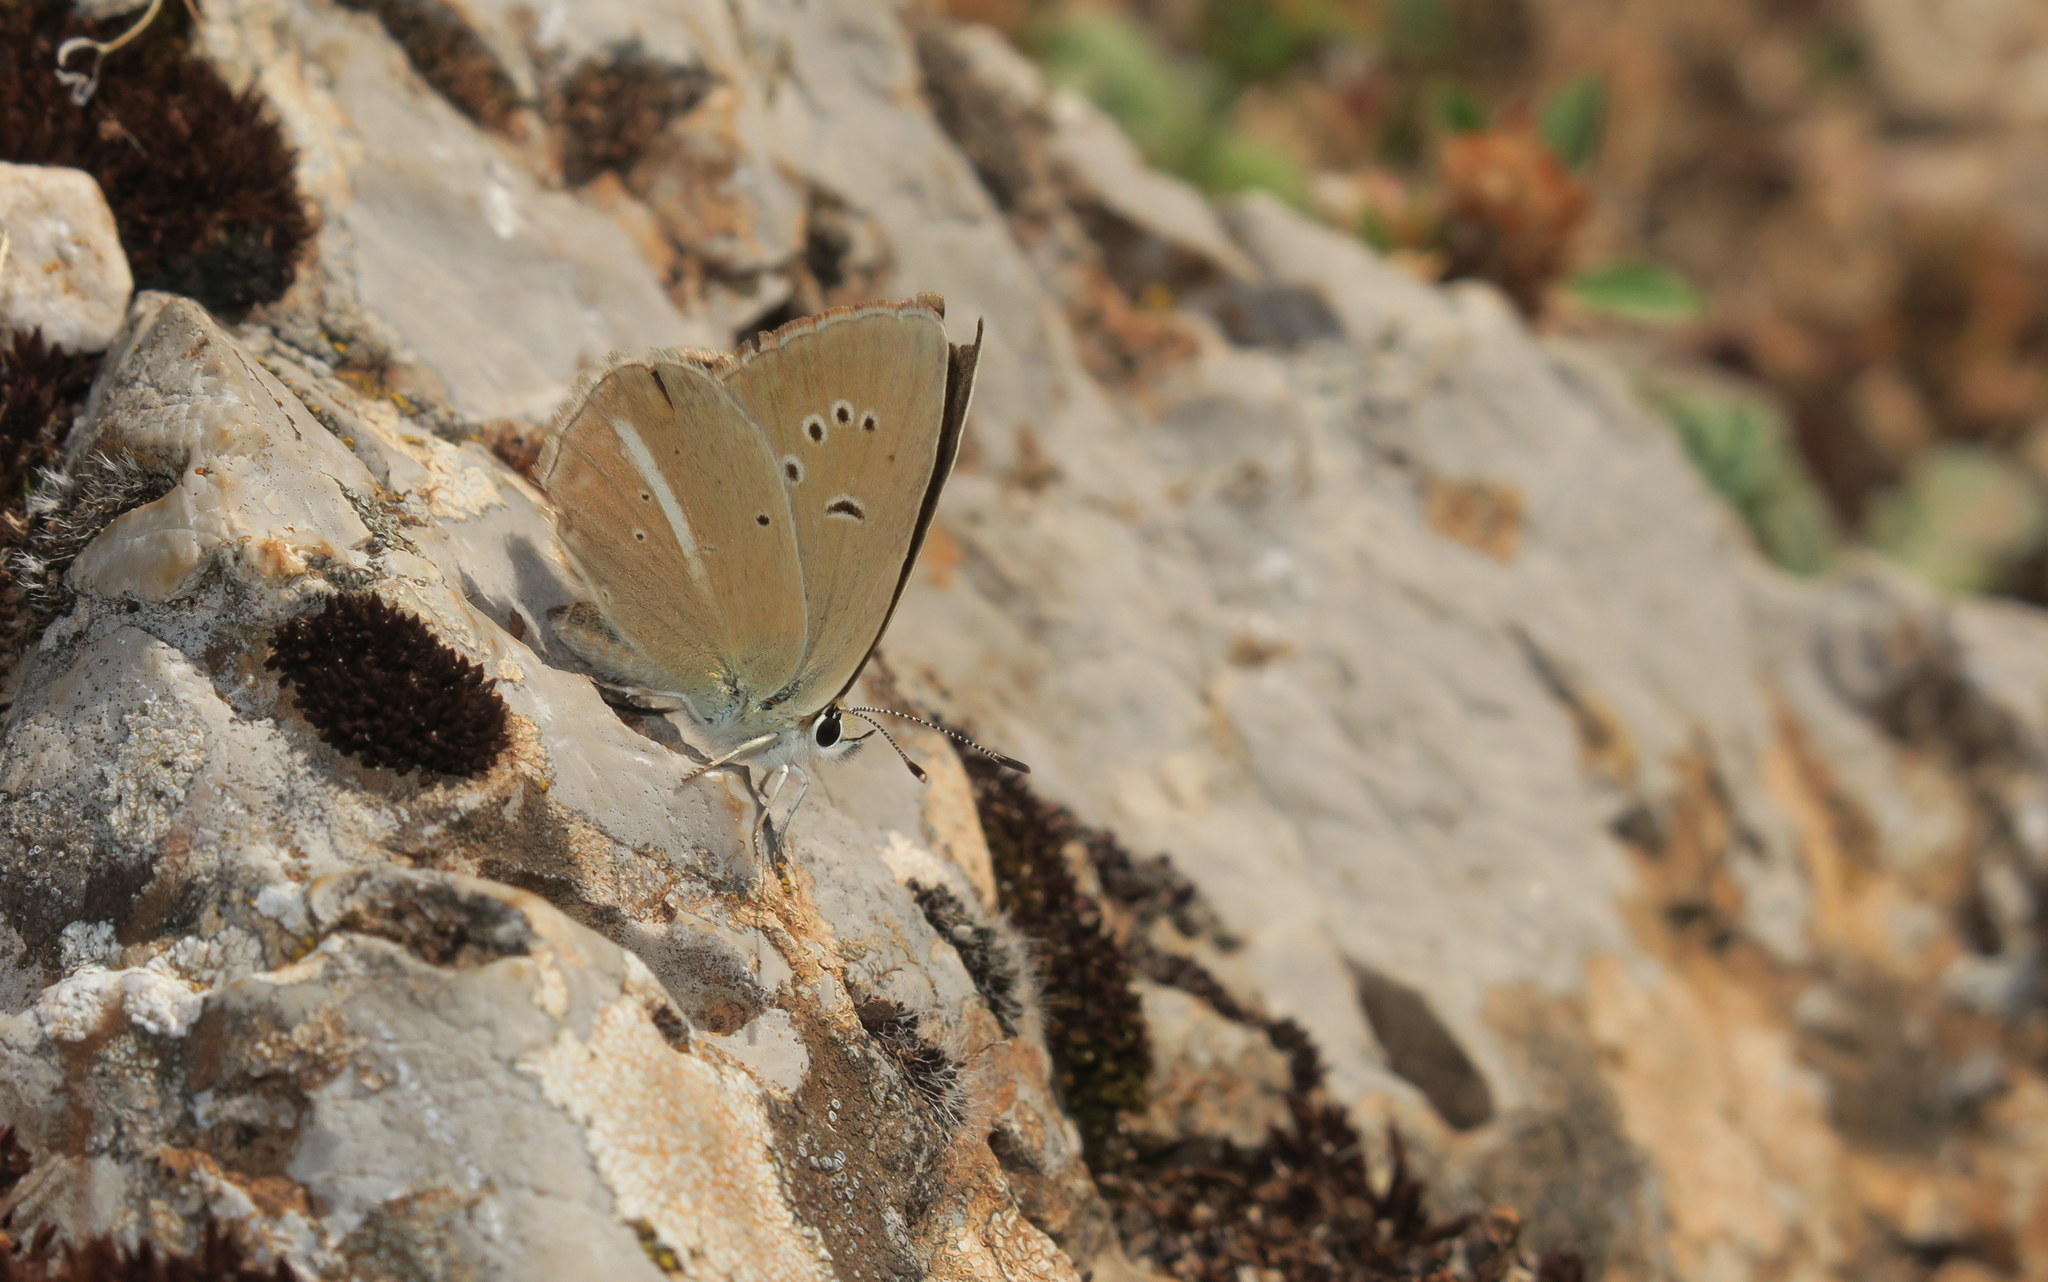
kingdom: Animalia
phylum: Arthropoda
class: Insecta
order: Lepidoptera
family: Lycaenidae
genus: Polyommatus
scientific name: Polyommatus ripartii
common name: Ripart's anomalous blue
